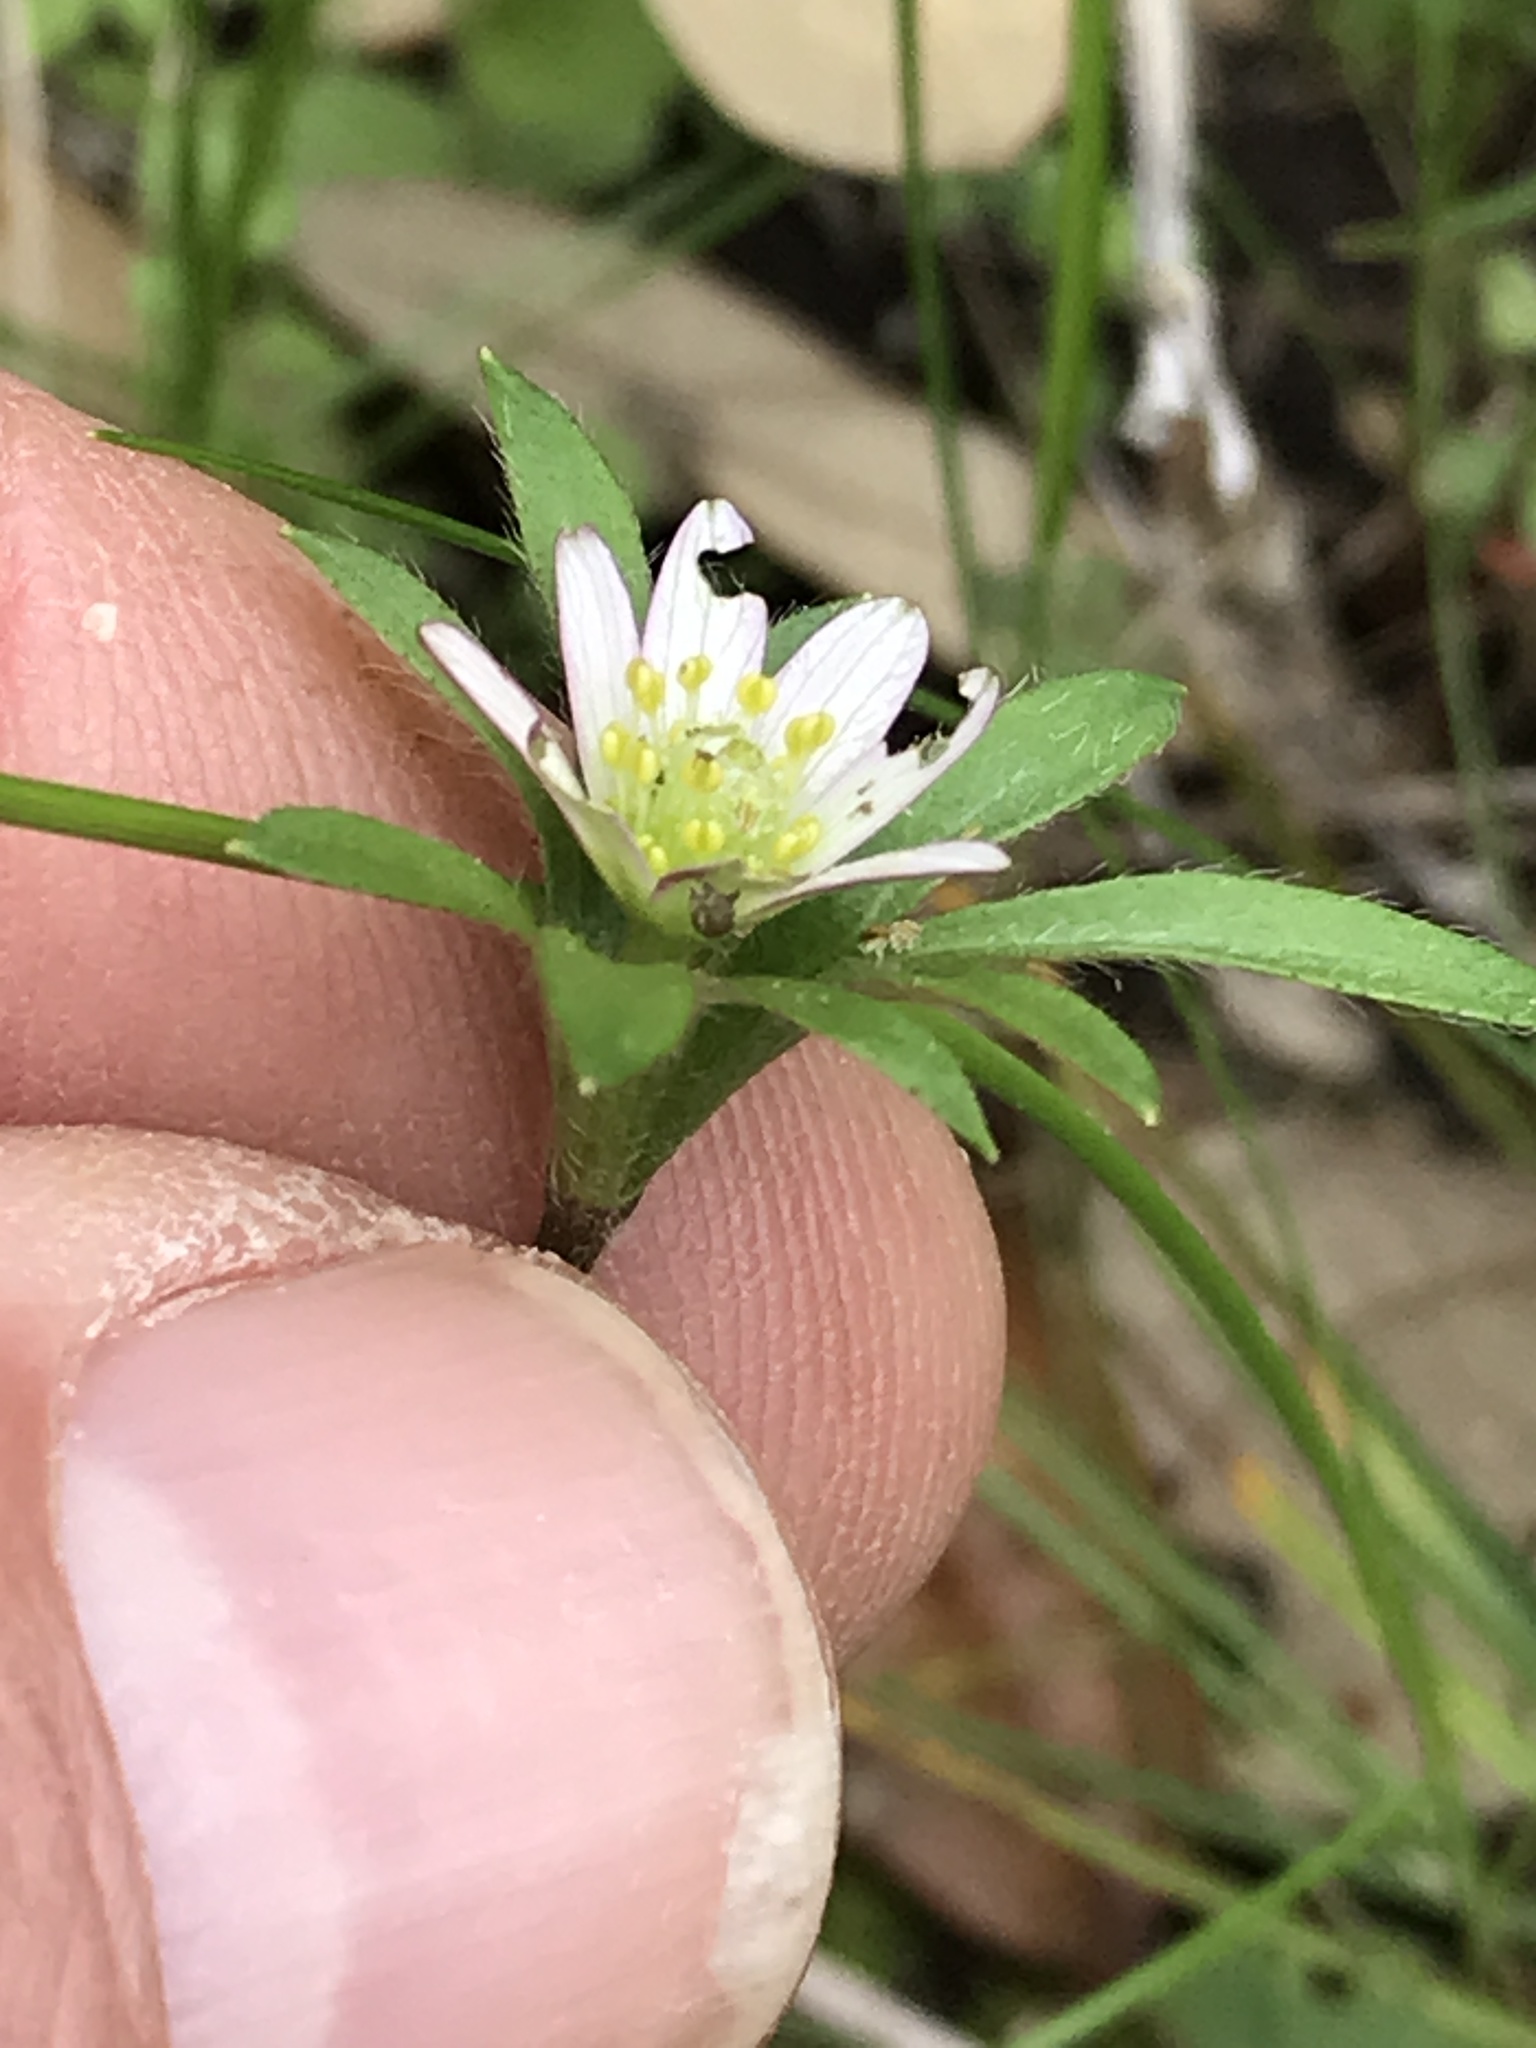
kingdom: Plantae
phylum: Tracheophyta
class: Magnoliopsida
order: Ranunculales
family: Ranunculaceae
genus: Anemone
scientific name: Anemone berlandieri
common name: Ten-petal anemone
